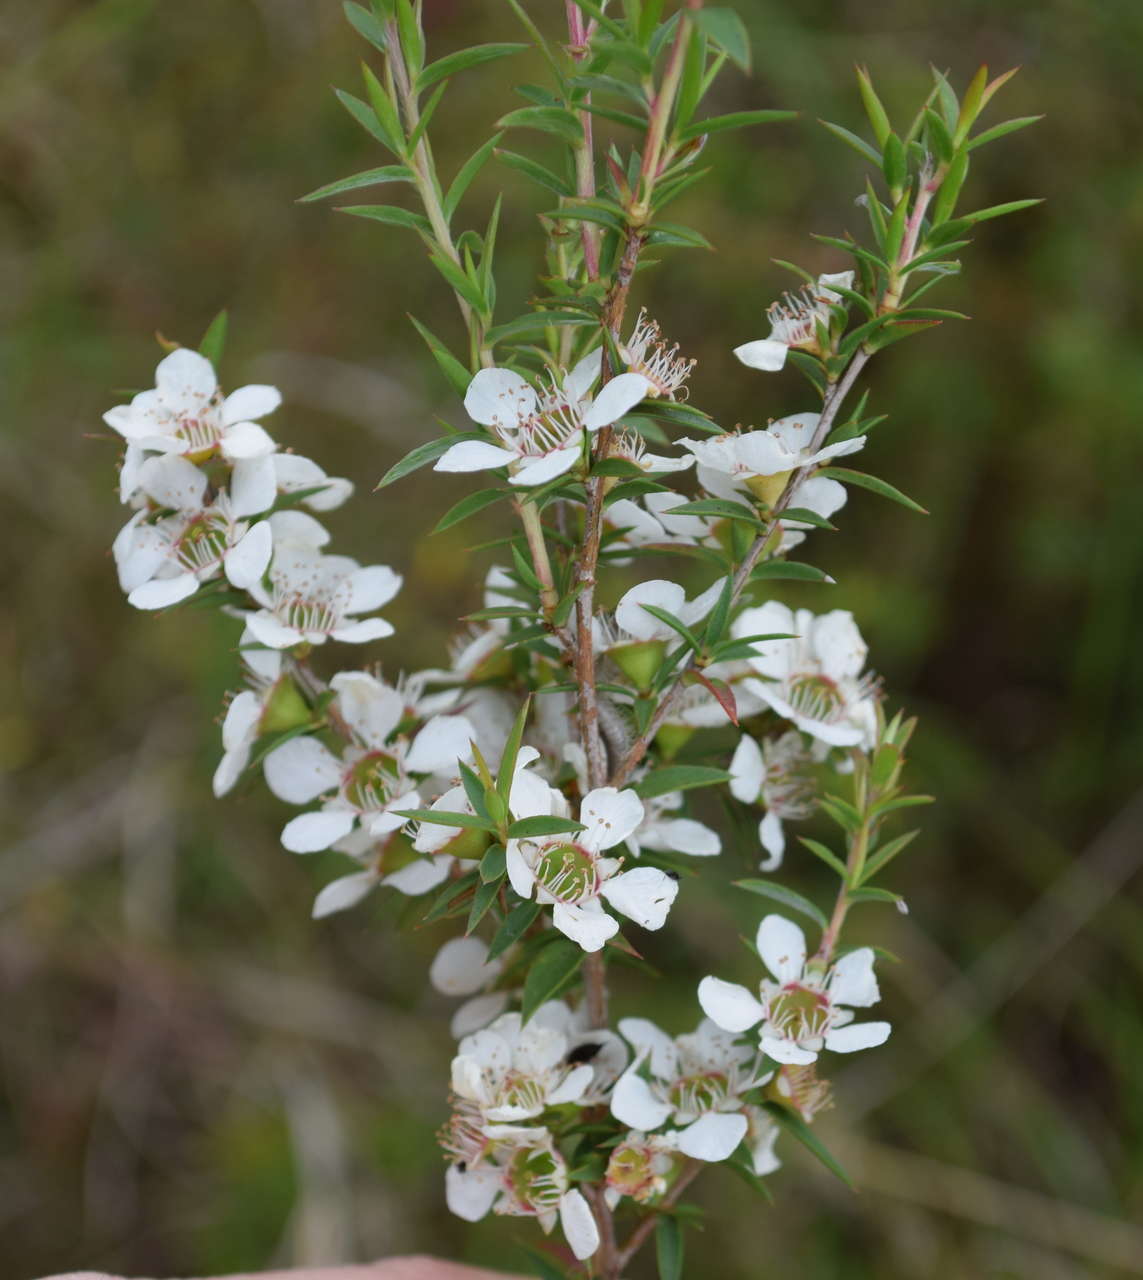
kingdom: Plantae
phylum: Tracheophyta
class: Magnoliopsida
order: Myrtales
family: Myrtaceae
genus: Leptospermum
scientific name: Leptospermum continentale
